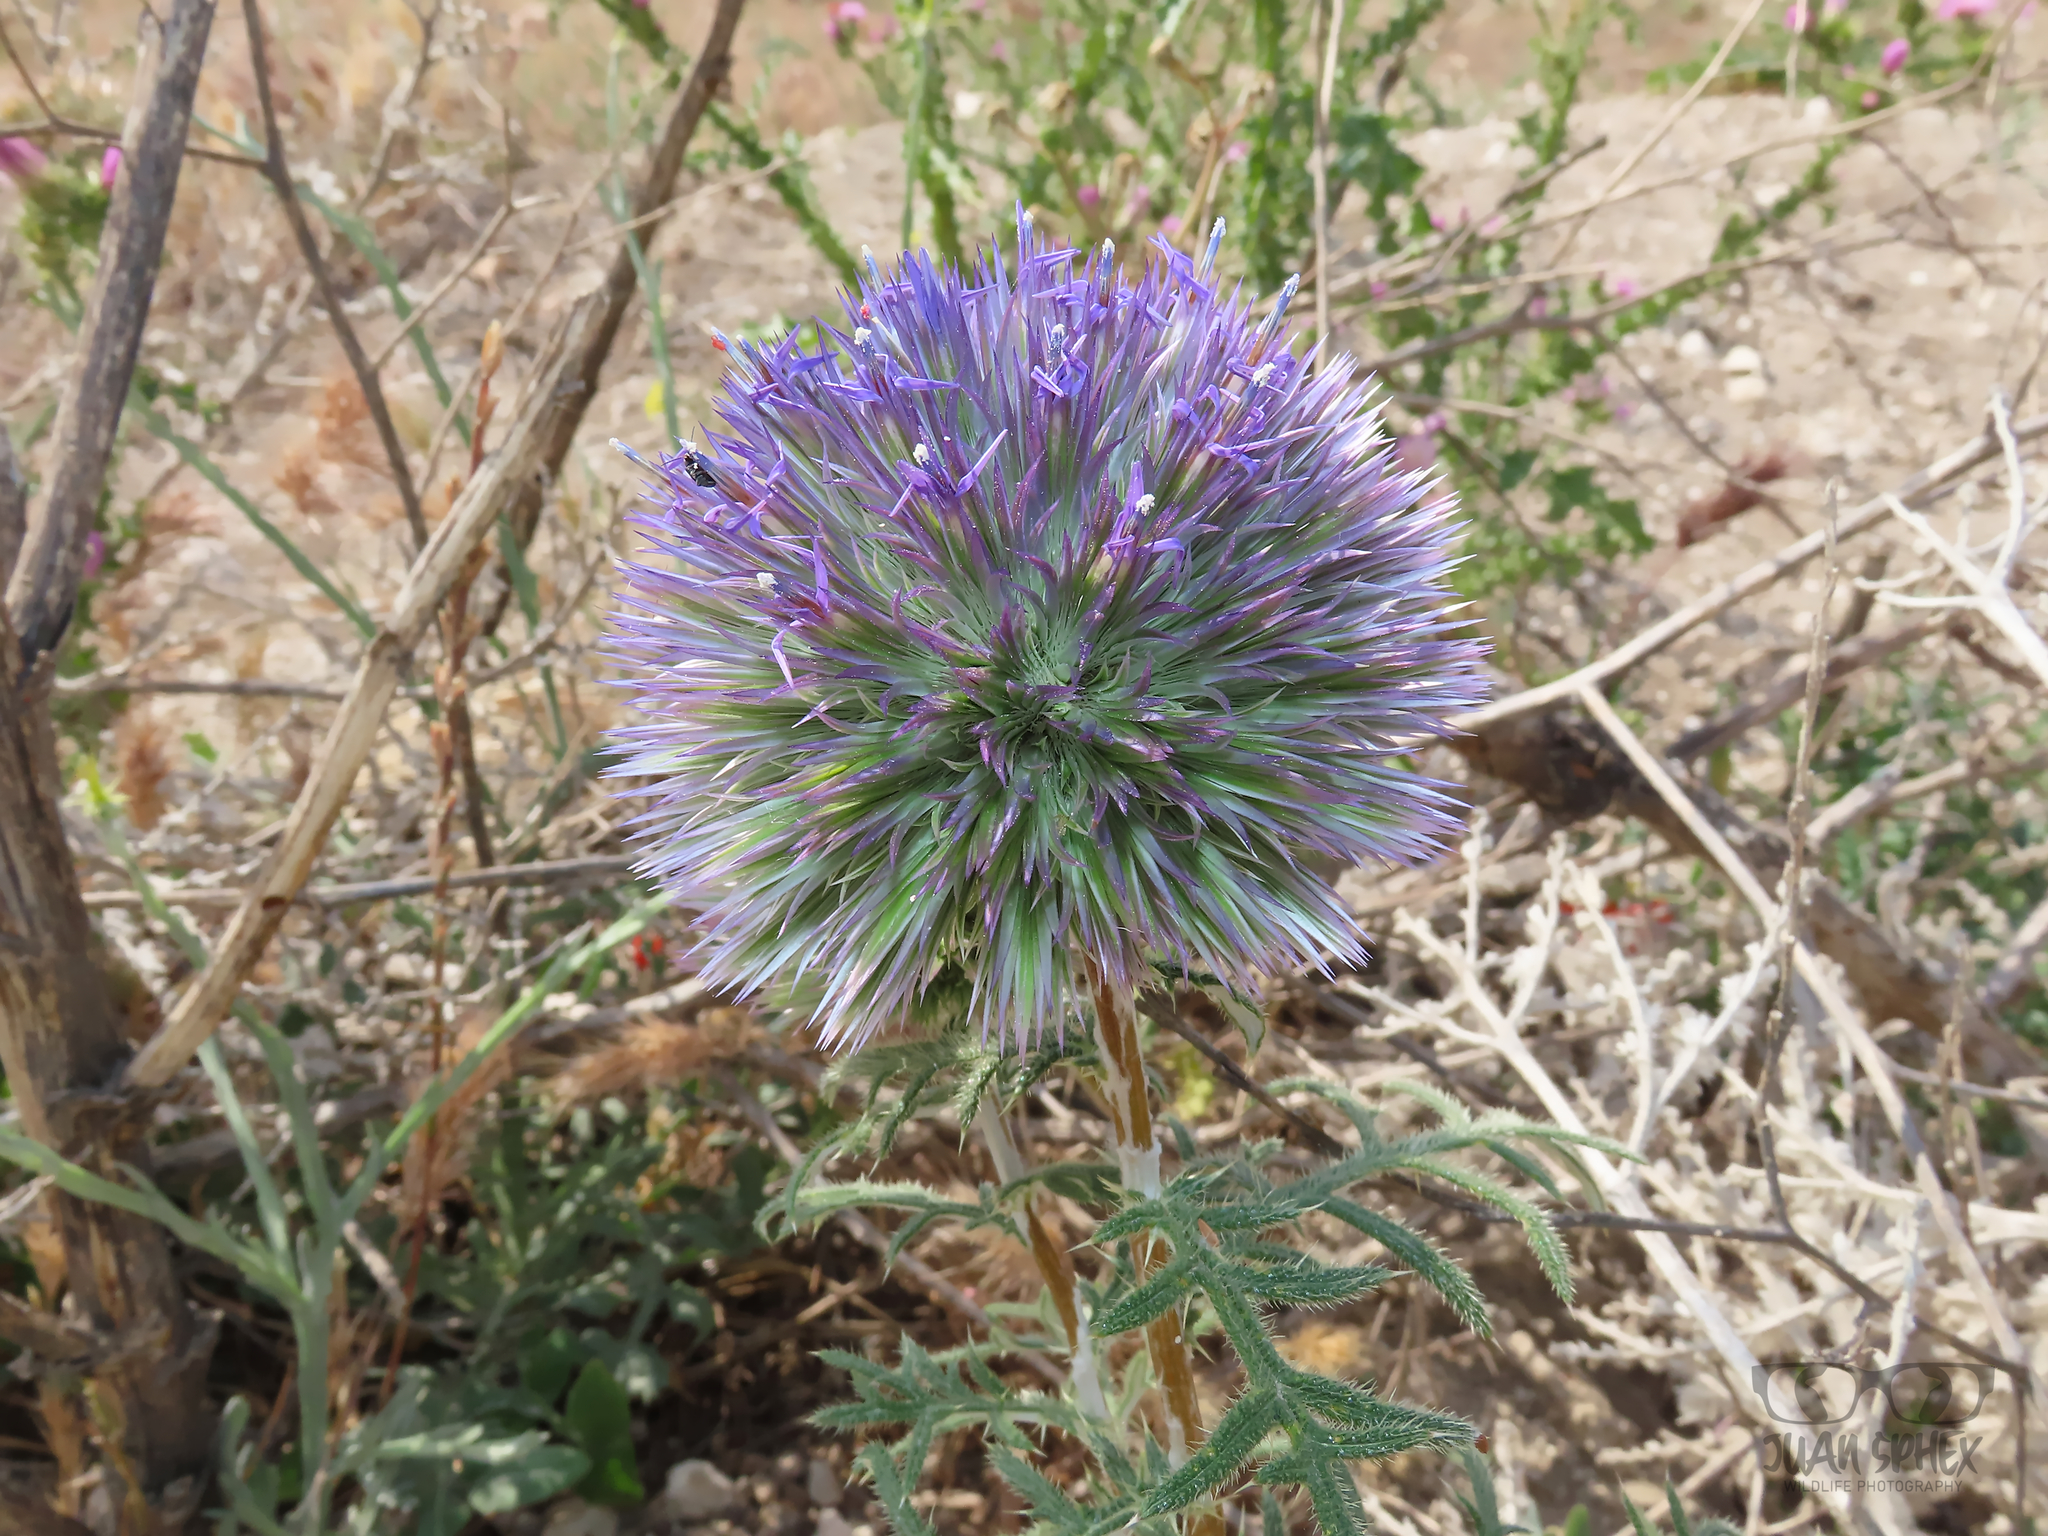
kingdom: Plantae
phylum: Tracheophyta
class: Magnoliopsida
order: Asterales
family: Asteraceae
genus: Echinops
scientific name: Echinops strigosus
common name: Rough-leaf globe thistle
